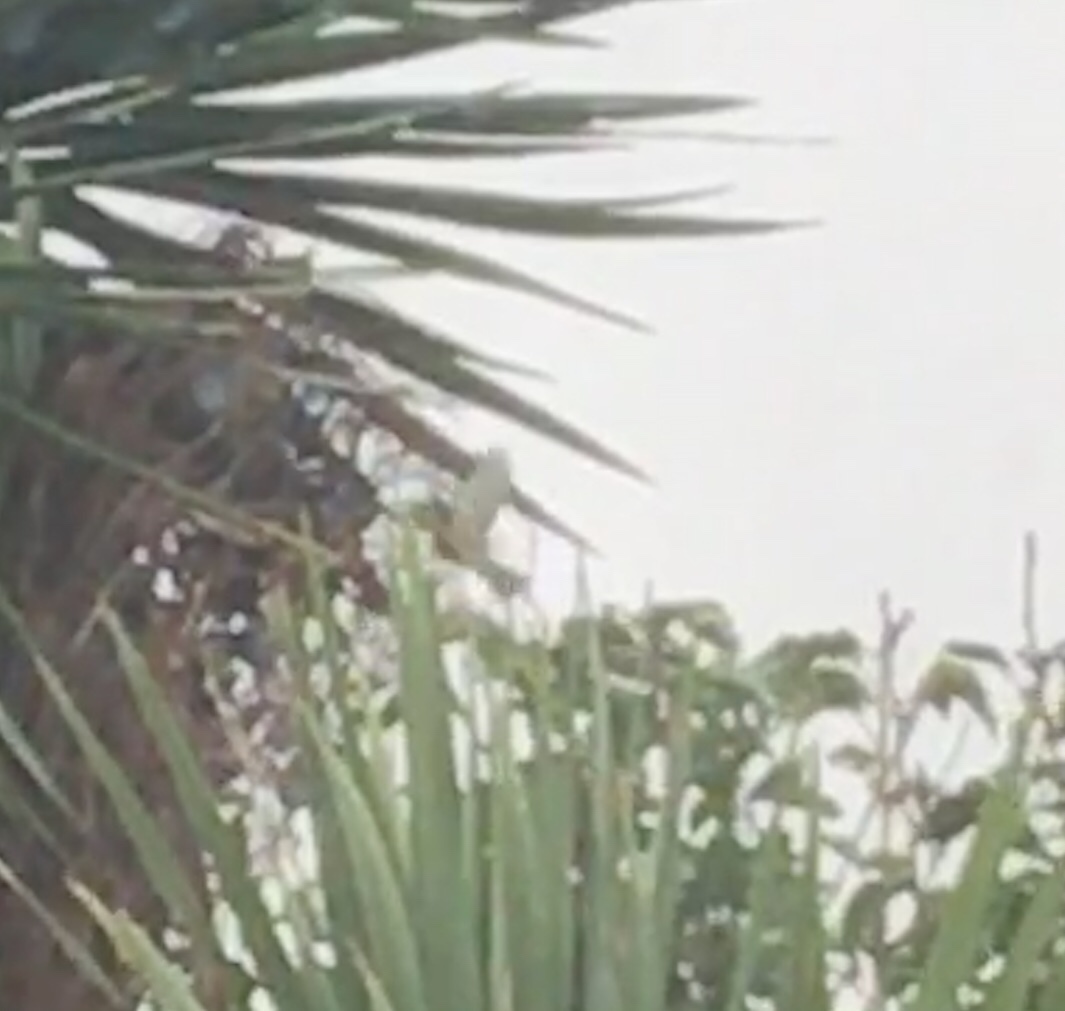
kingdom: Animalia
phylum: Chordata
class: Aves
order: Passeriformes
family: Zosteropidae
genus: Zosterops
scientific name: Zosterops lateralis
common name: Silvereye
